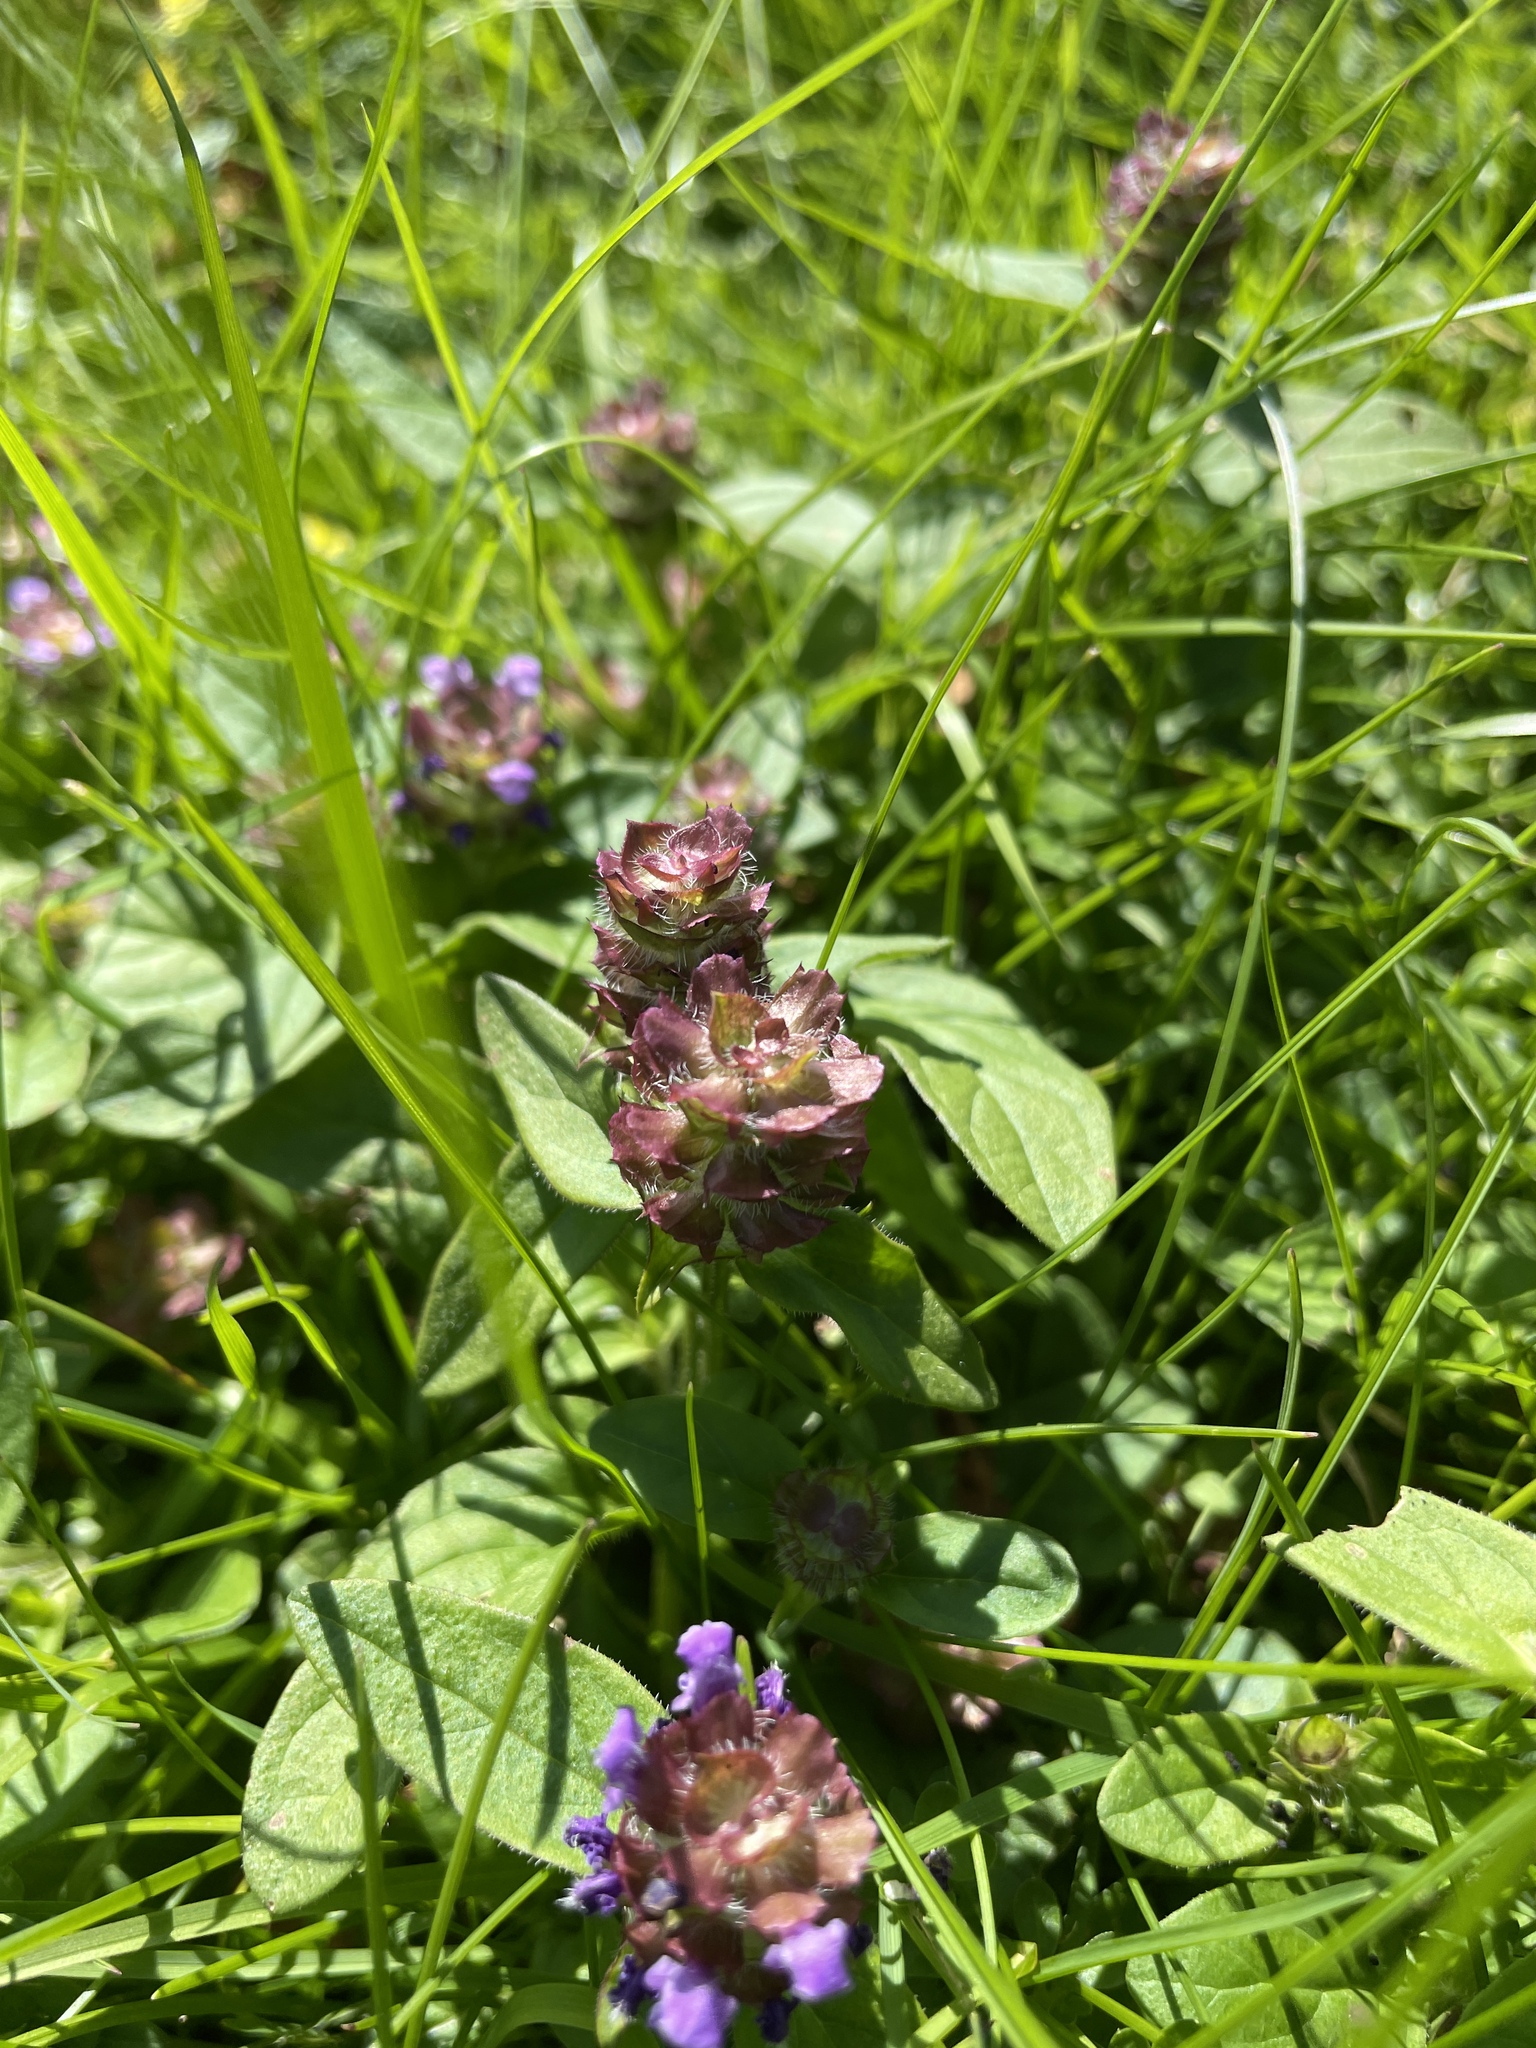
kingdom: Plantae
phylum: Tracheophyta
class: Magnoliopsida
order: Lamiales
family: Lamiaceae
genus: Prunella
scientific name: Prunella vulgaris
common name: Heal-all
